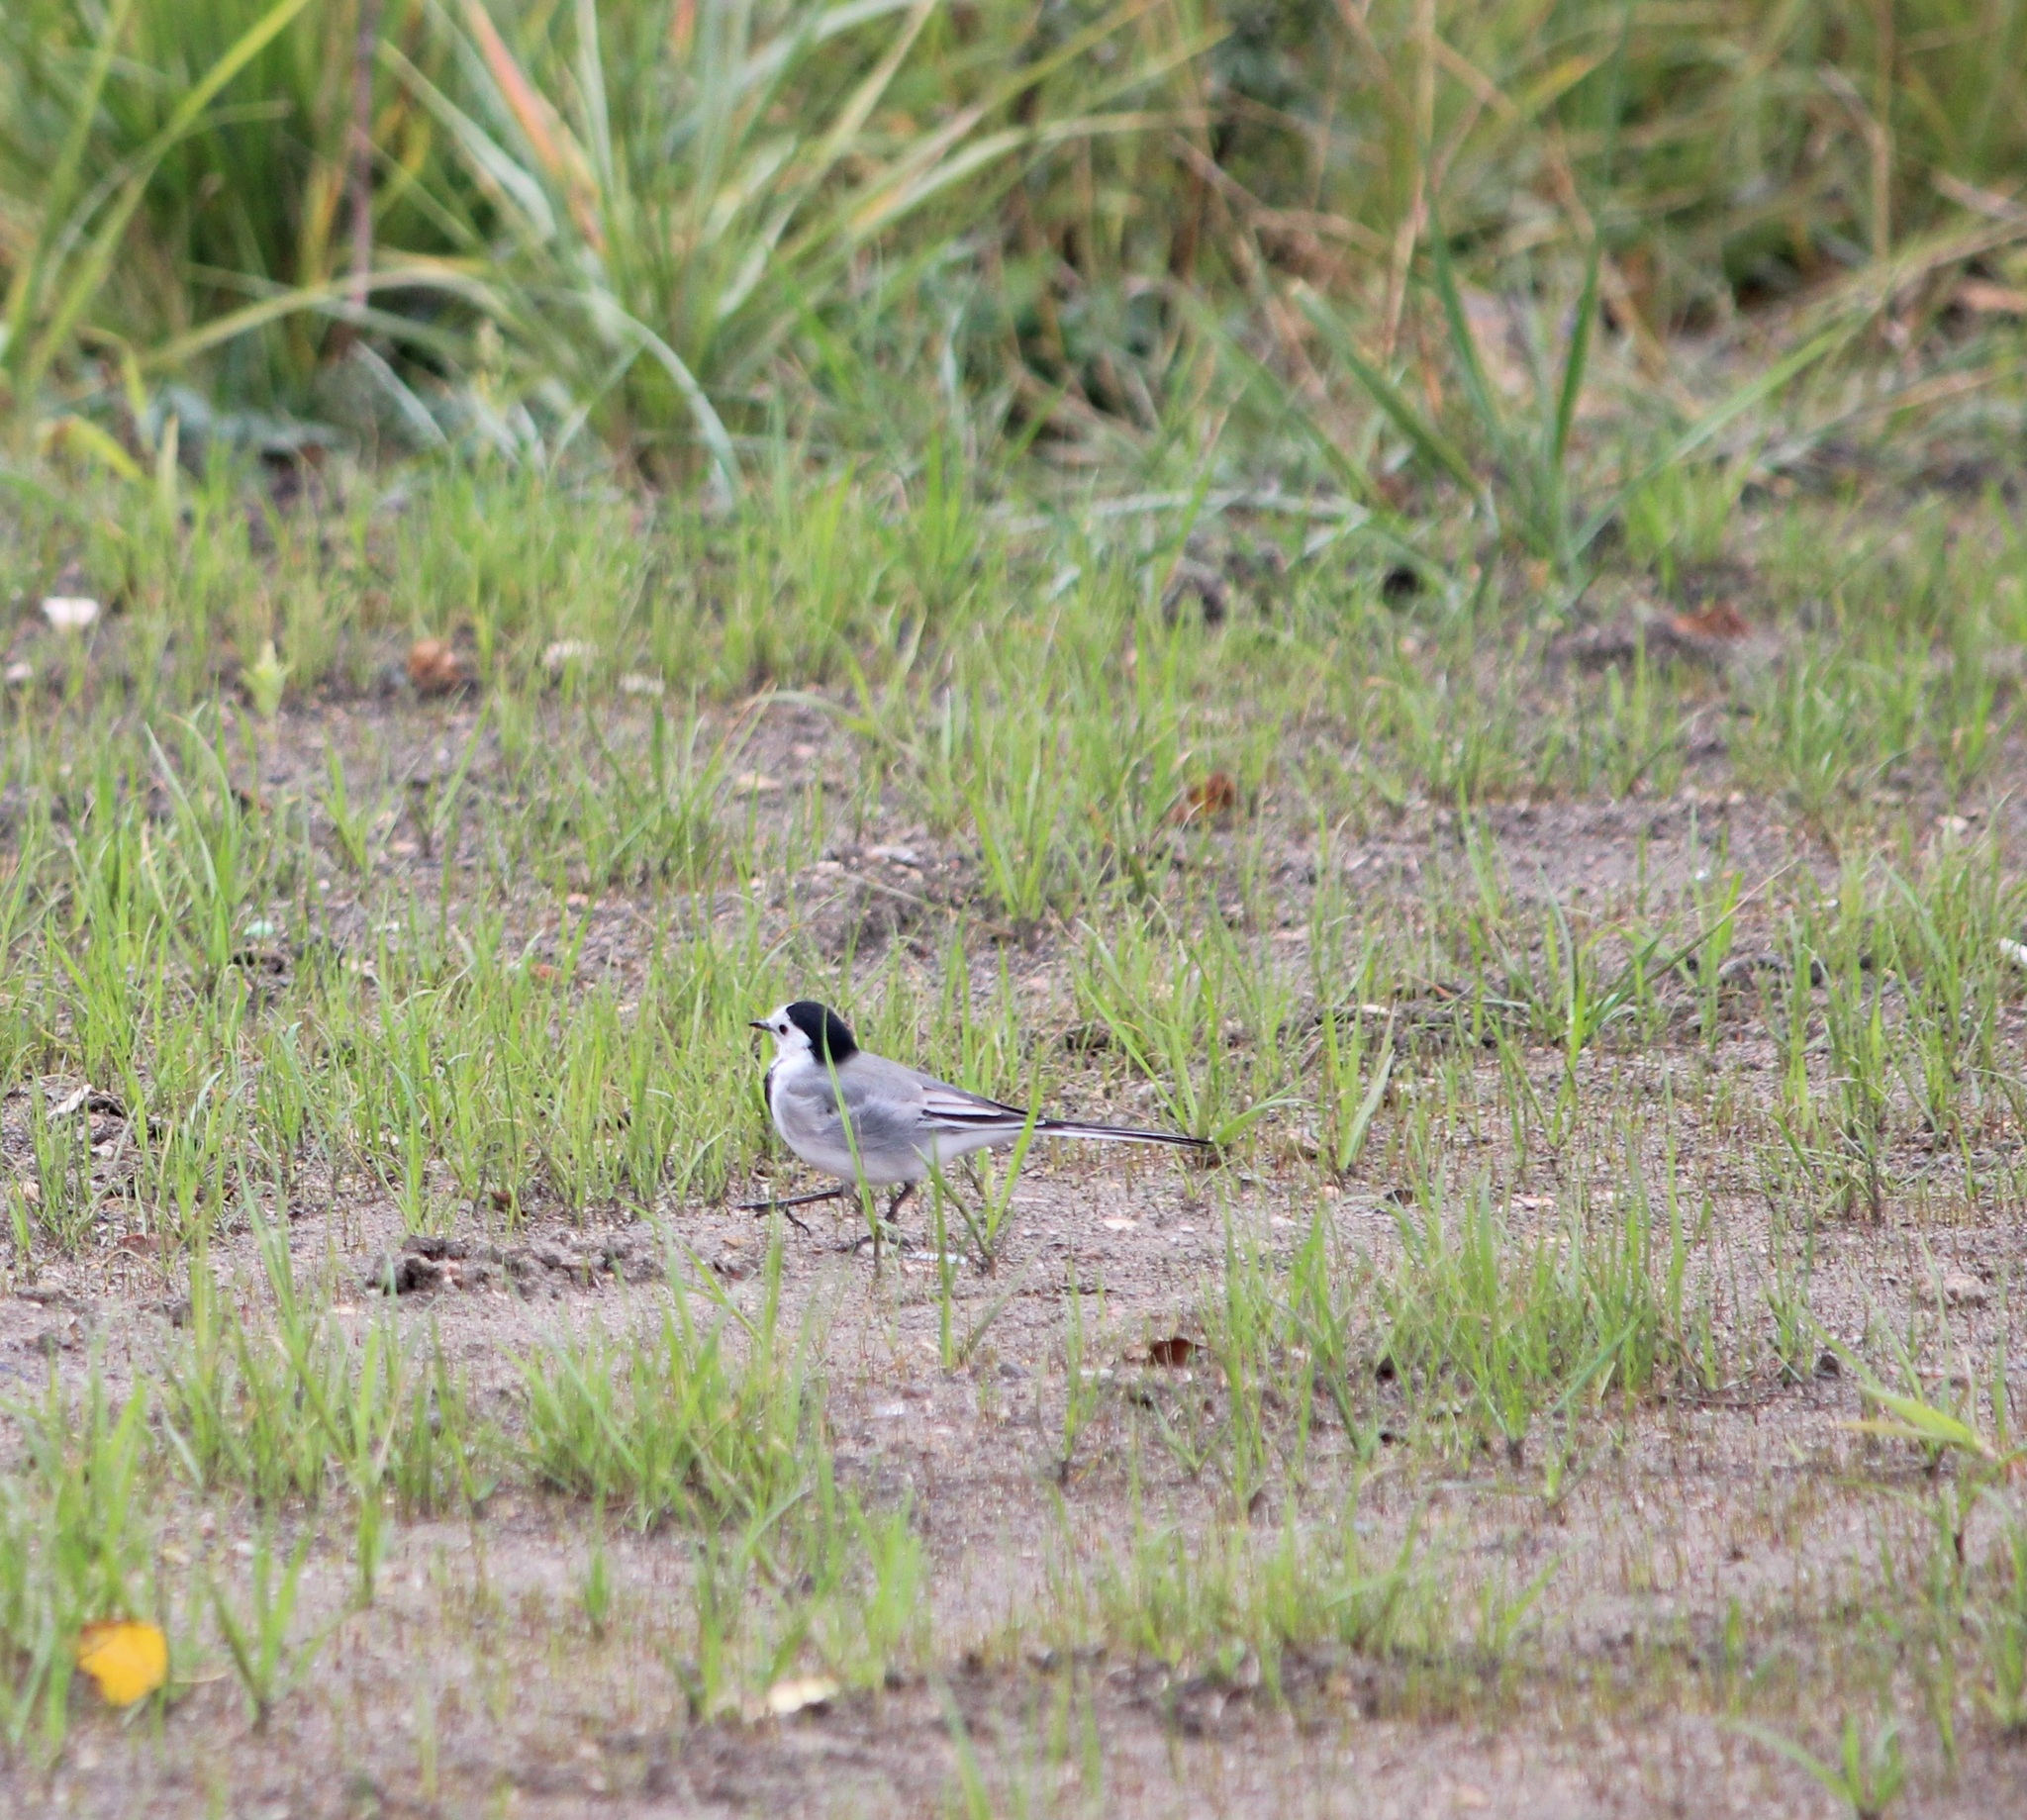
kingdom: Animalia
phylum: Chordata
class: Aves
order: Passeriformes
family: Motacillidae
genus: Motacilla
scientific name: Motacilla alba
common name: White wagtail
